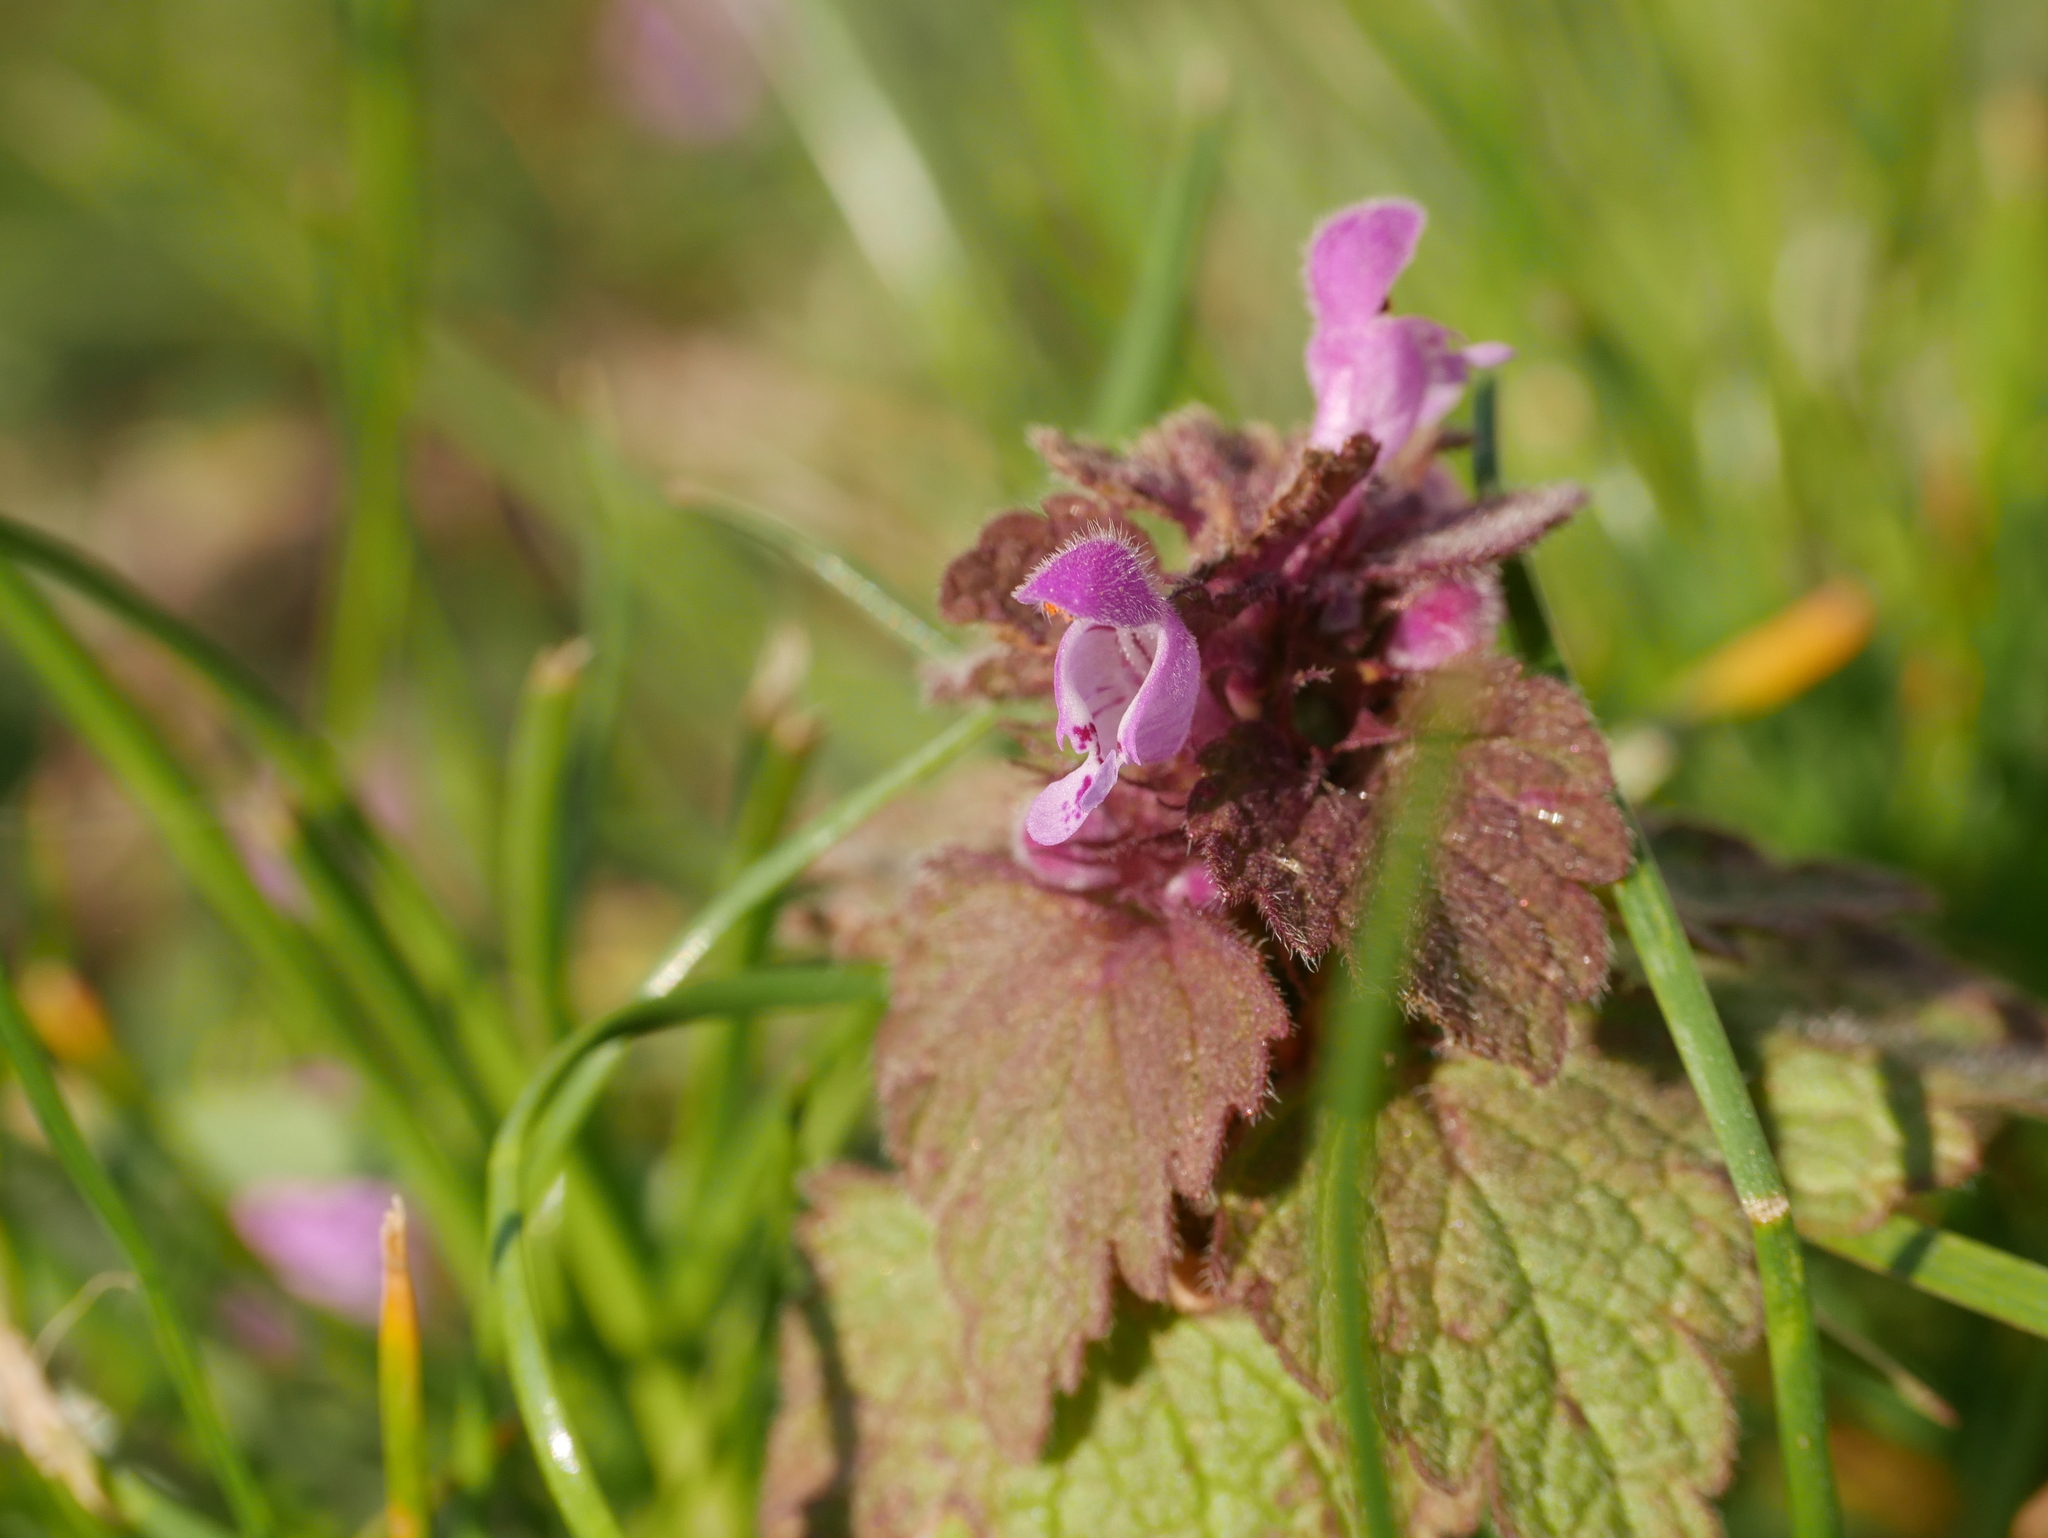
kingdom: Plantae
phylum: Tracheophyta
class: Magnoliopsida
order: Lamiales
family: Lamiaceae
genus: Lamium
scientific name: Lamium purpureum
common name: Red dead-nettle
